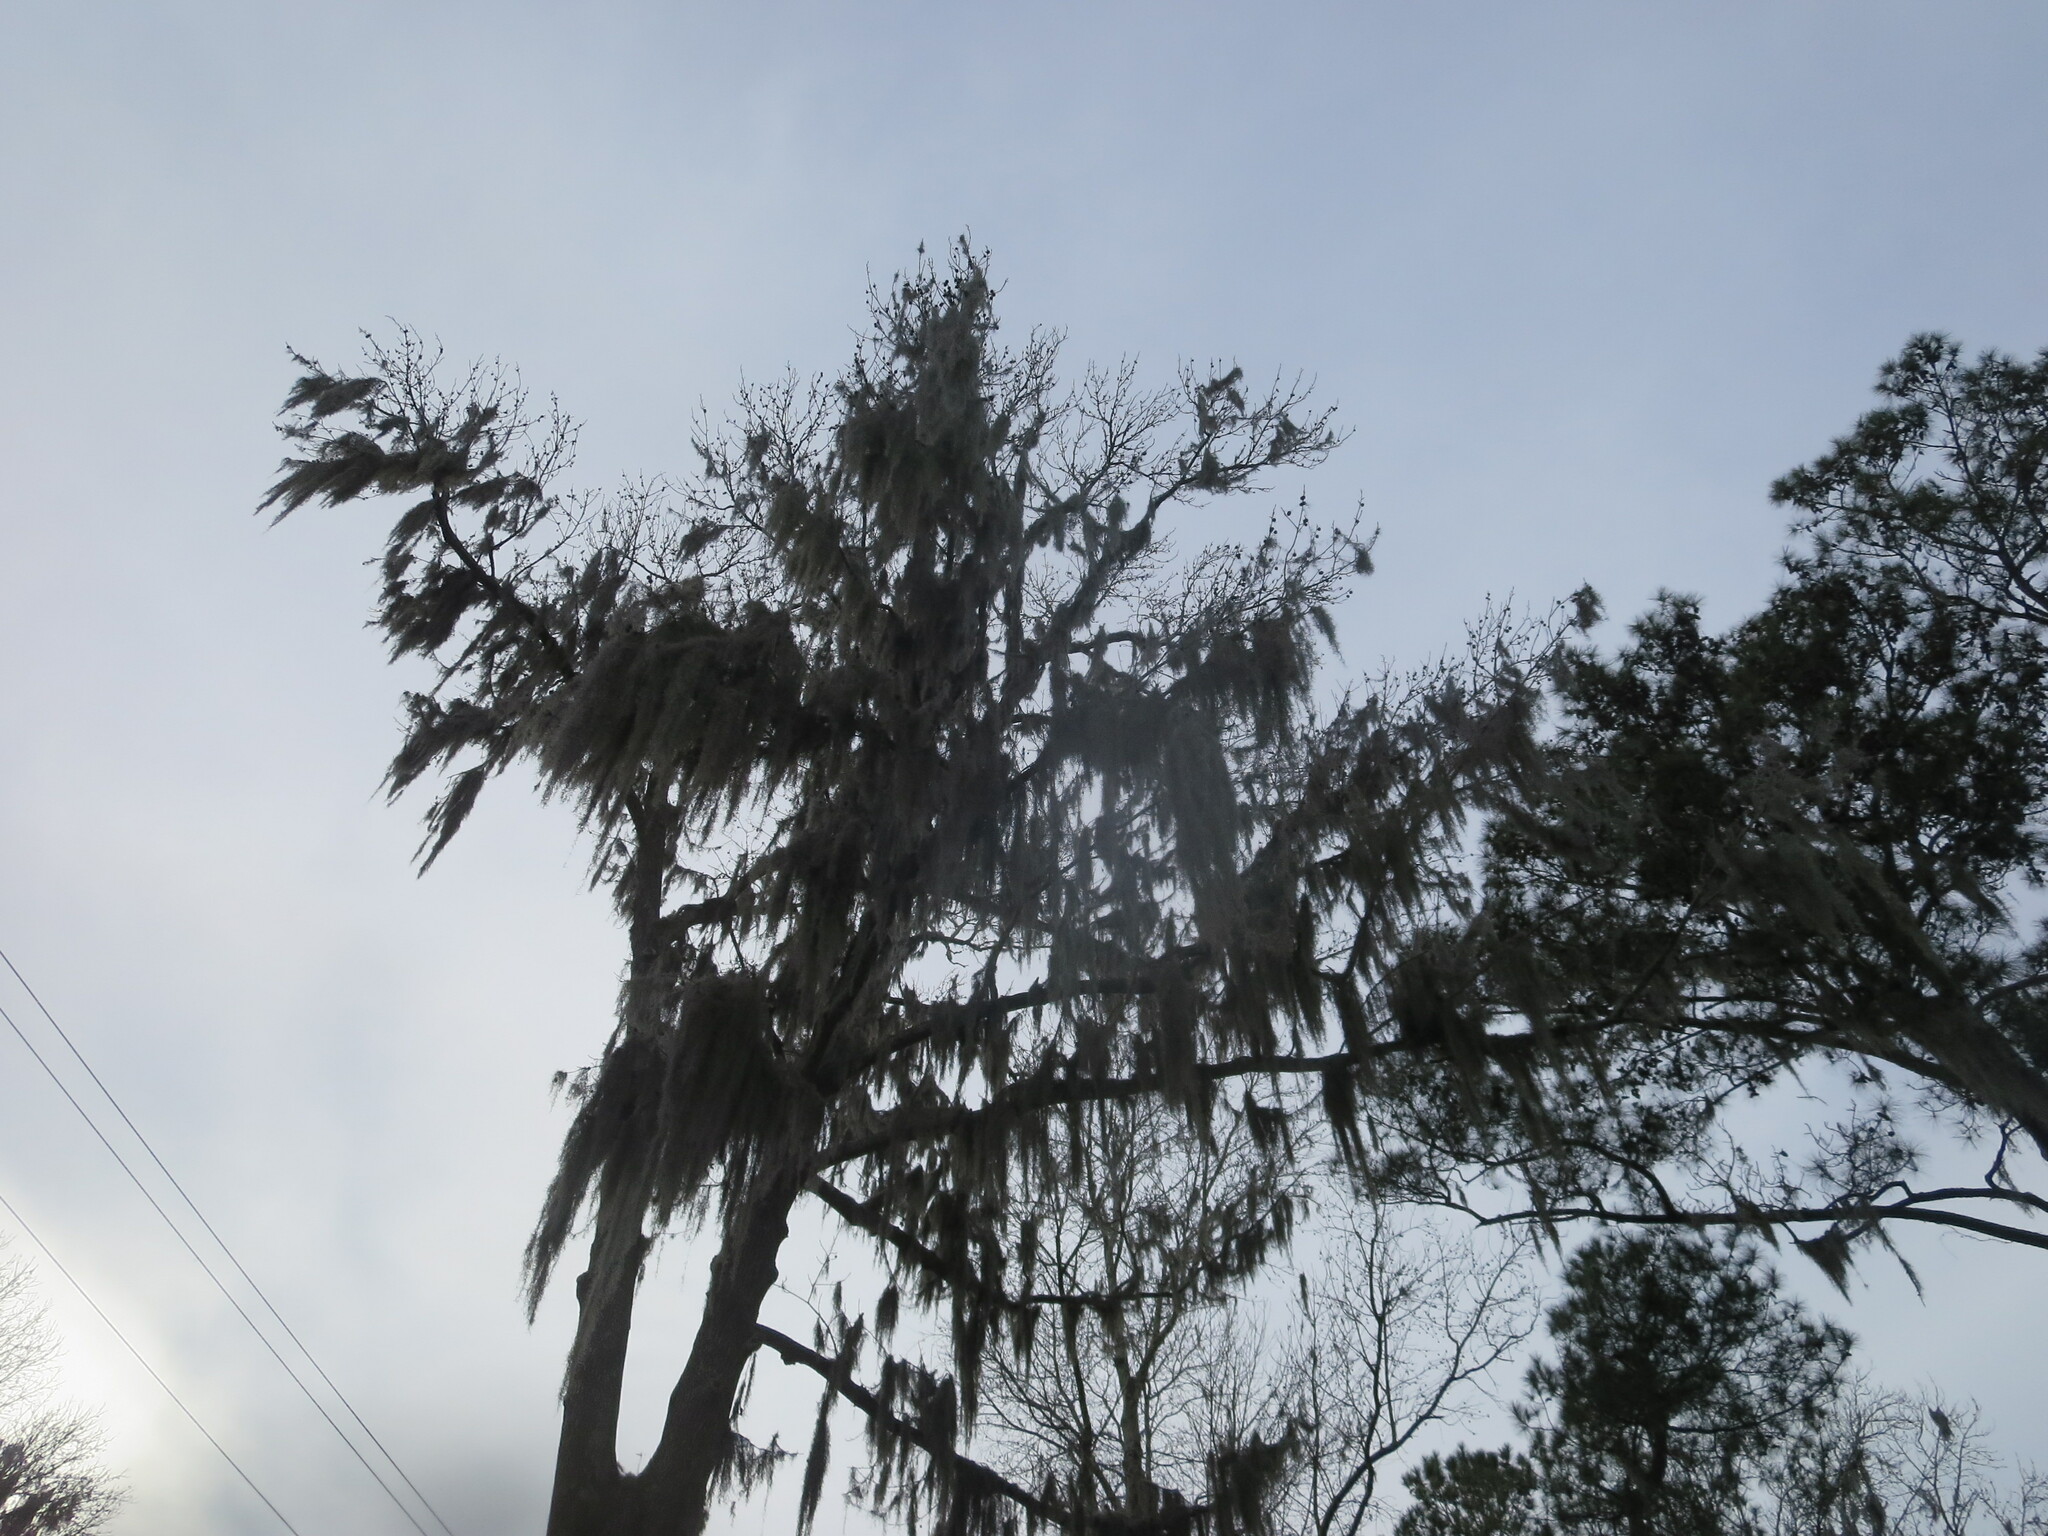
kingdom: Plantae
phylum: Tracheophyta
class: Liliopsida
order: Poales
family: Bromeliaceae
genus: Tillandsia
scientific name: Tillandsia usneoides
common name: Spanish moss
